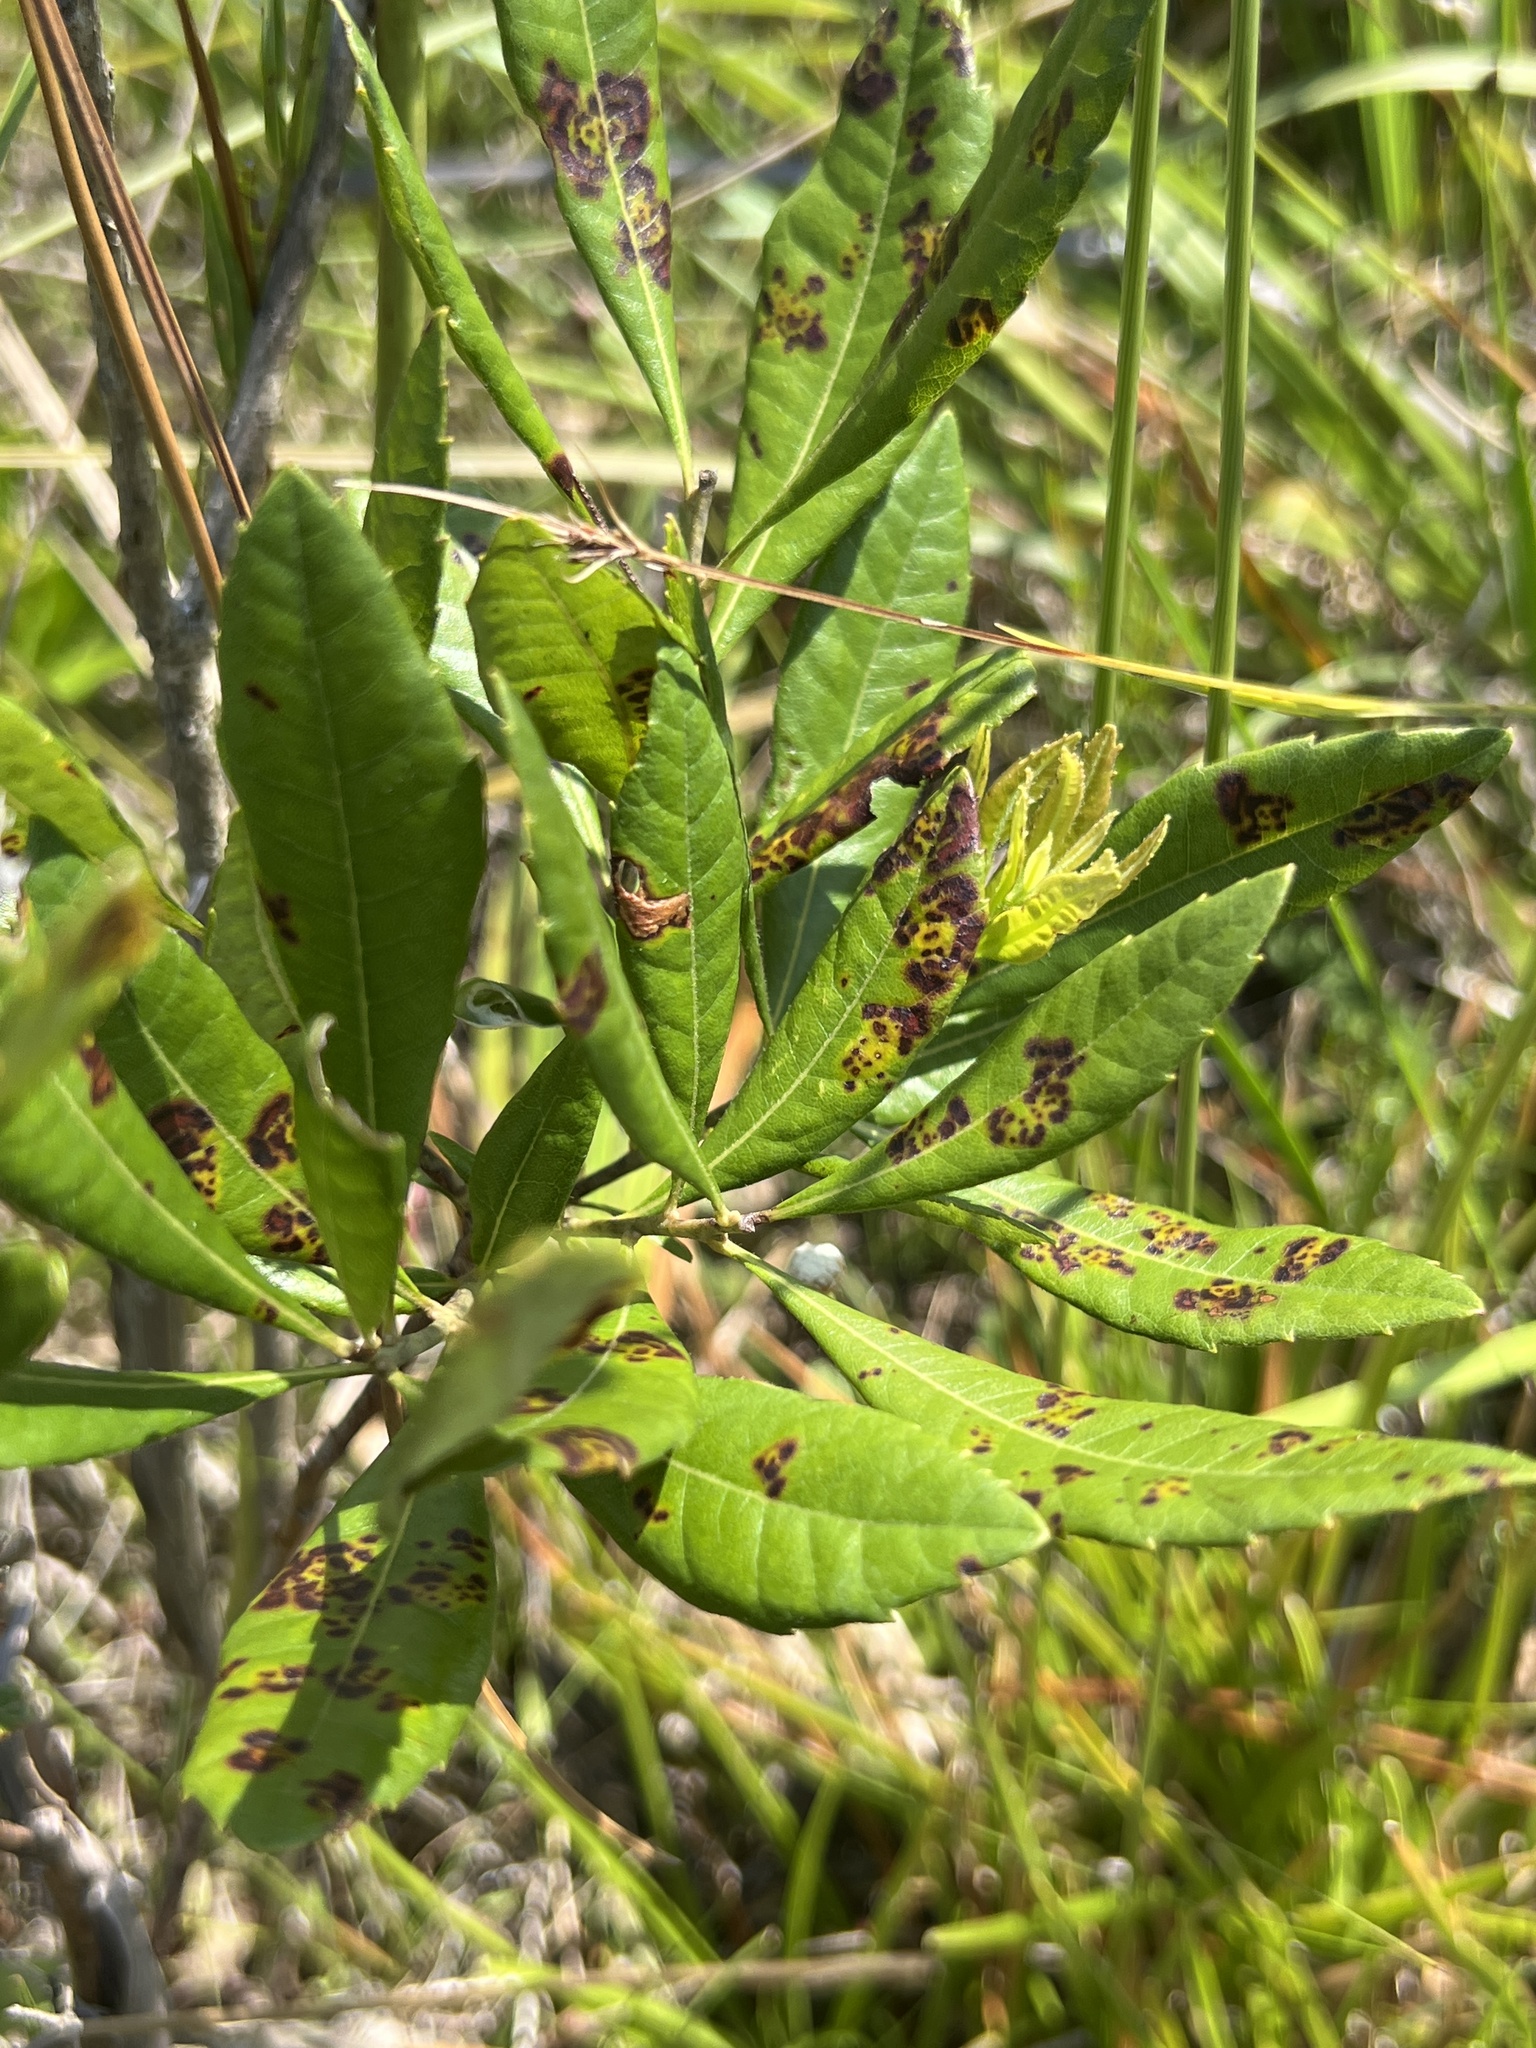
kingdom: Plantae
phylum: Tracheophyta
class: Magnoliopsida
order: Fagales
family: Myricaceae
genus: Morella
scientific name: Morella caroliniensis
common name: Evergreen bayberry
